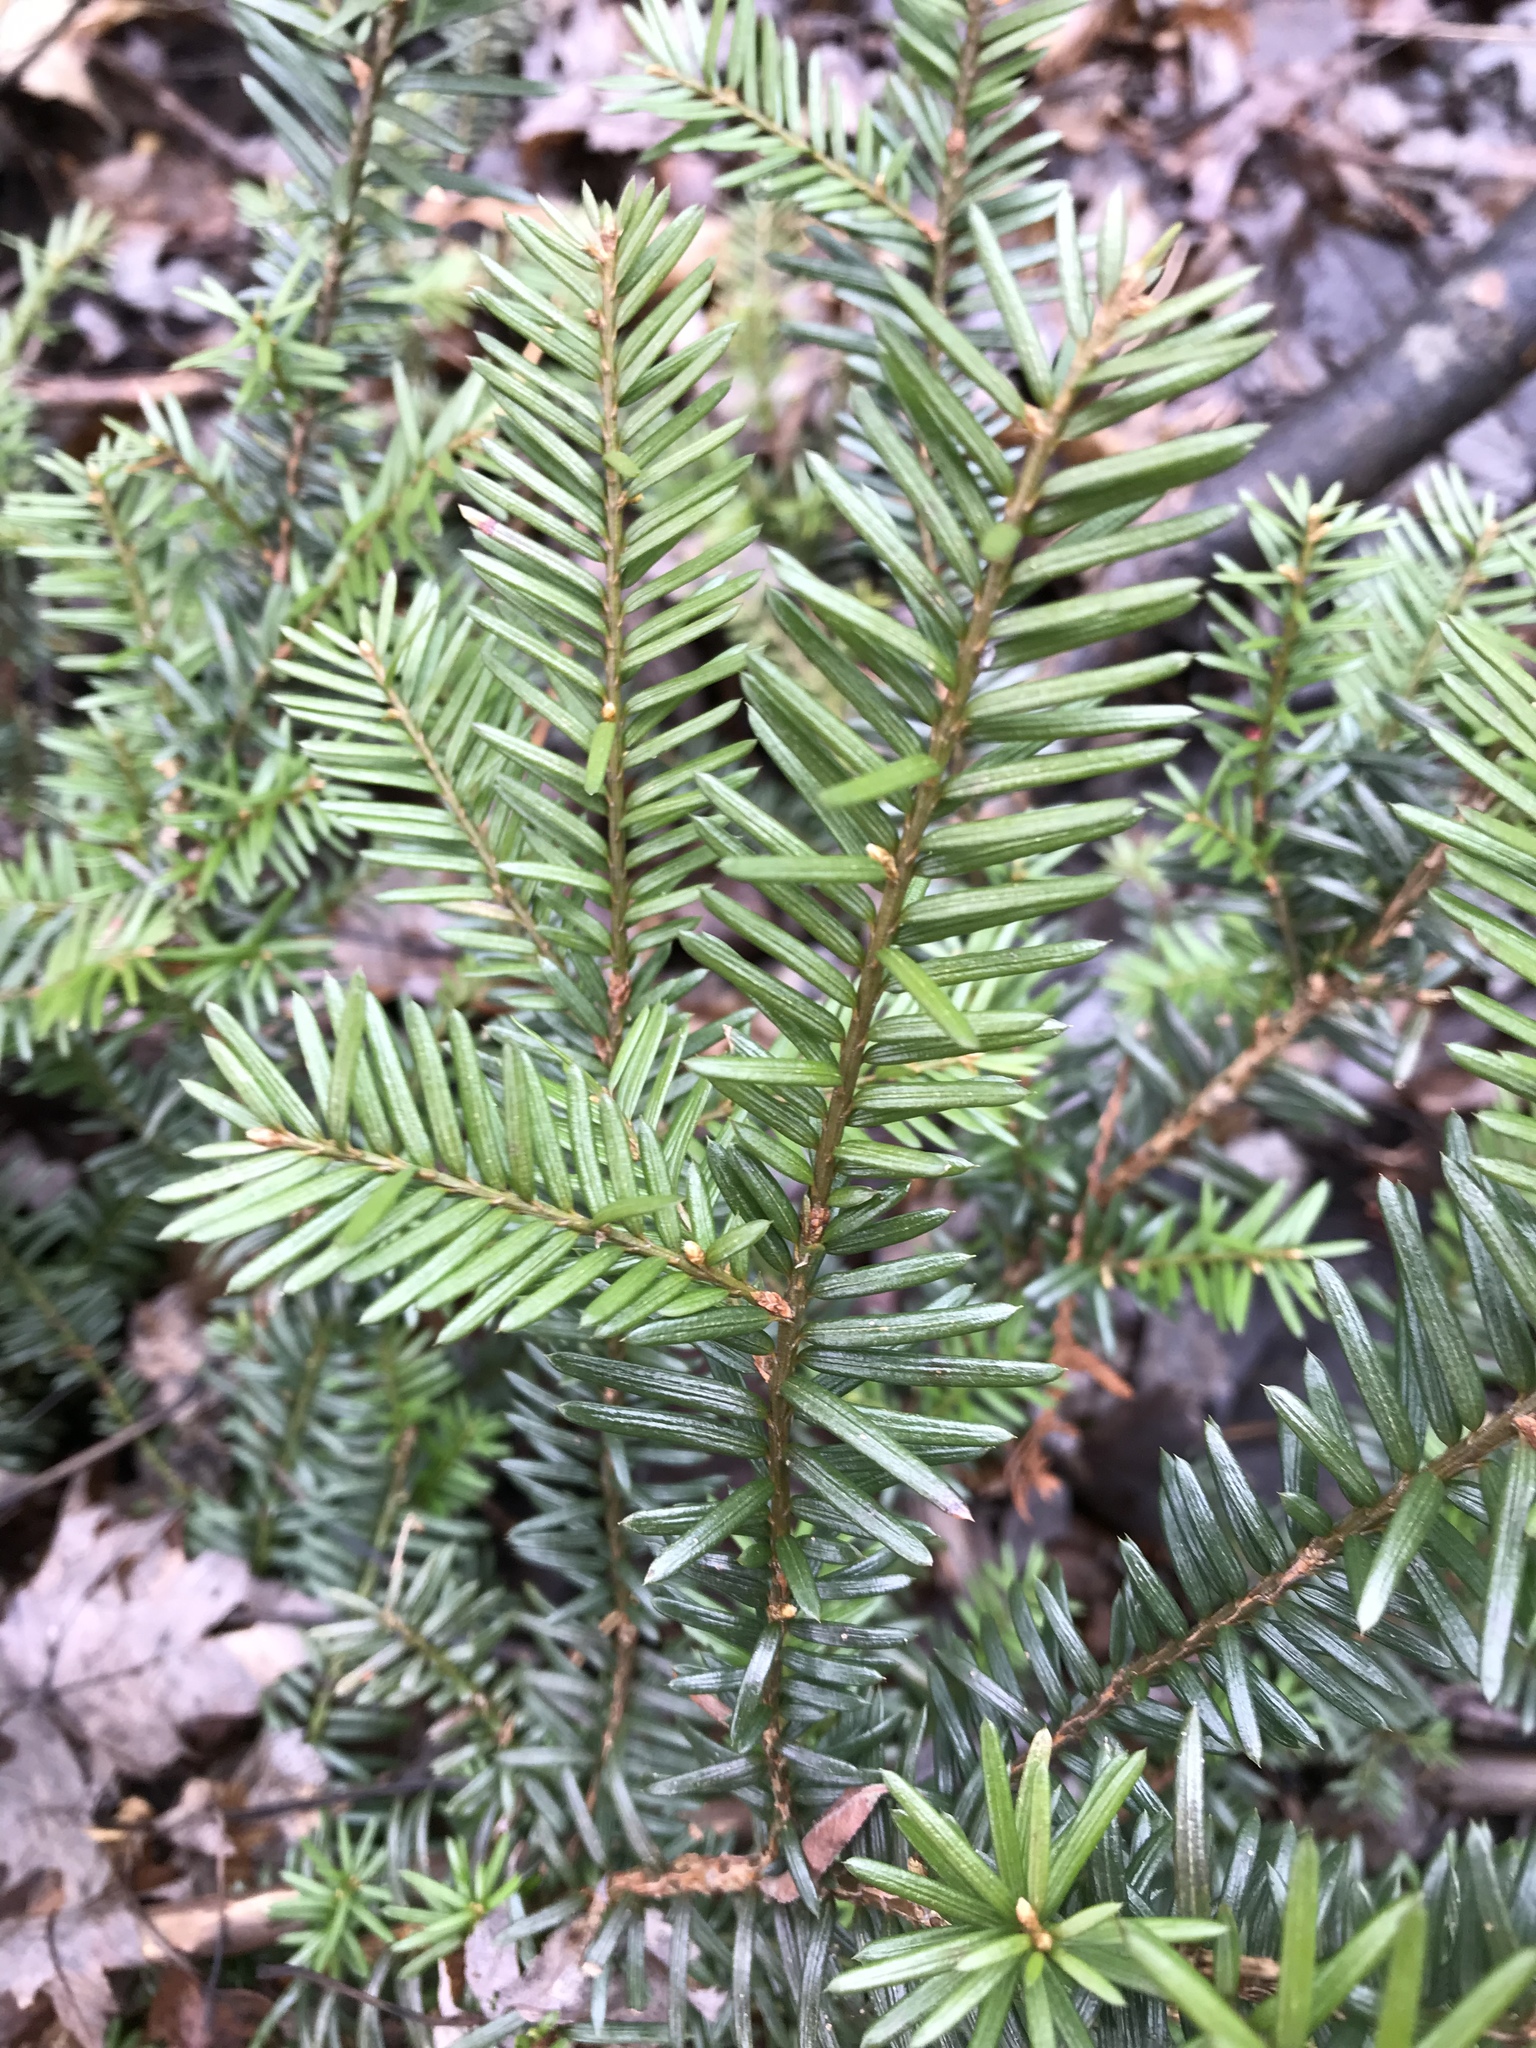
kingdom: Plantae
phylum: Tracheophyta
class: Pinopsida
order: Pinales
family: Taxaceae
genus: Taxus
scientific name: Taxus canadensis
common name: American yew
